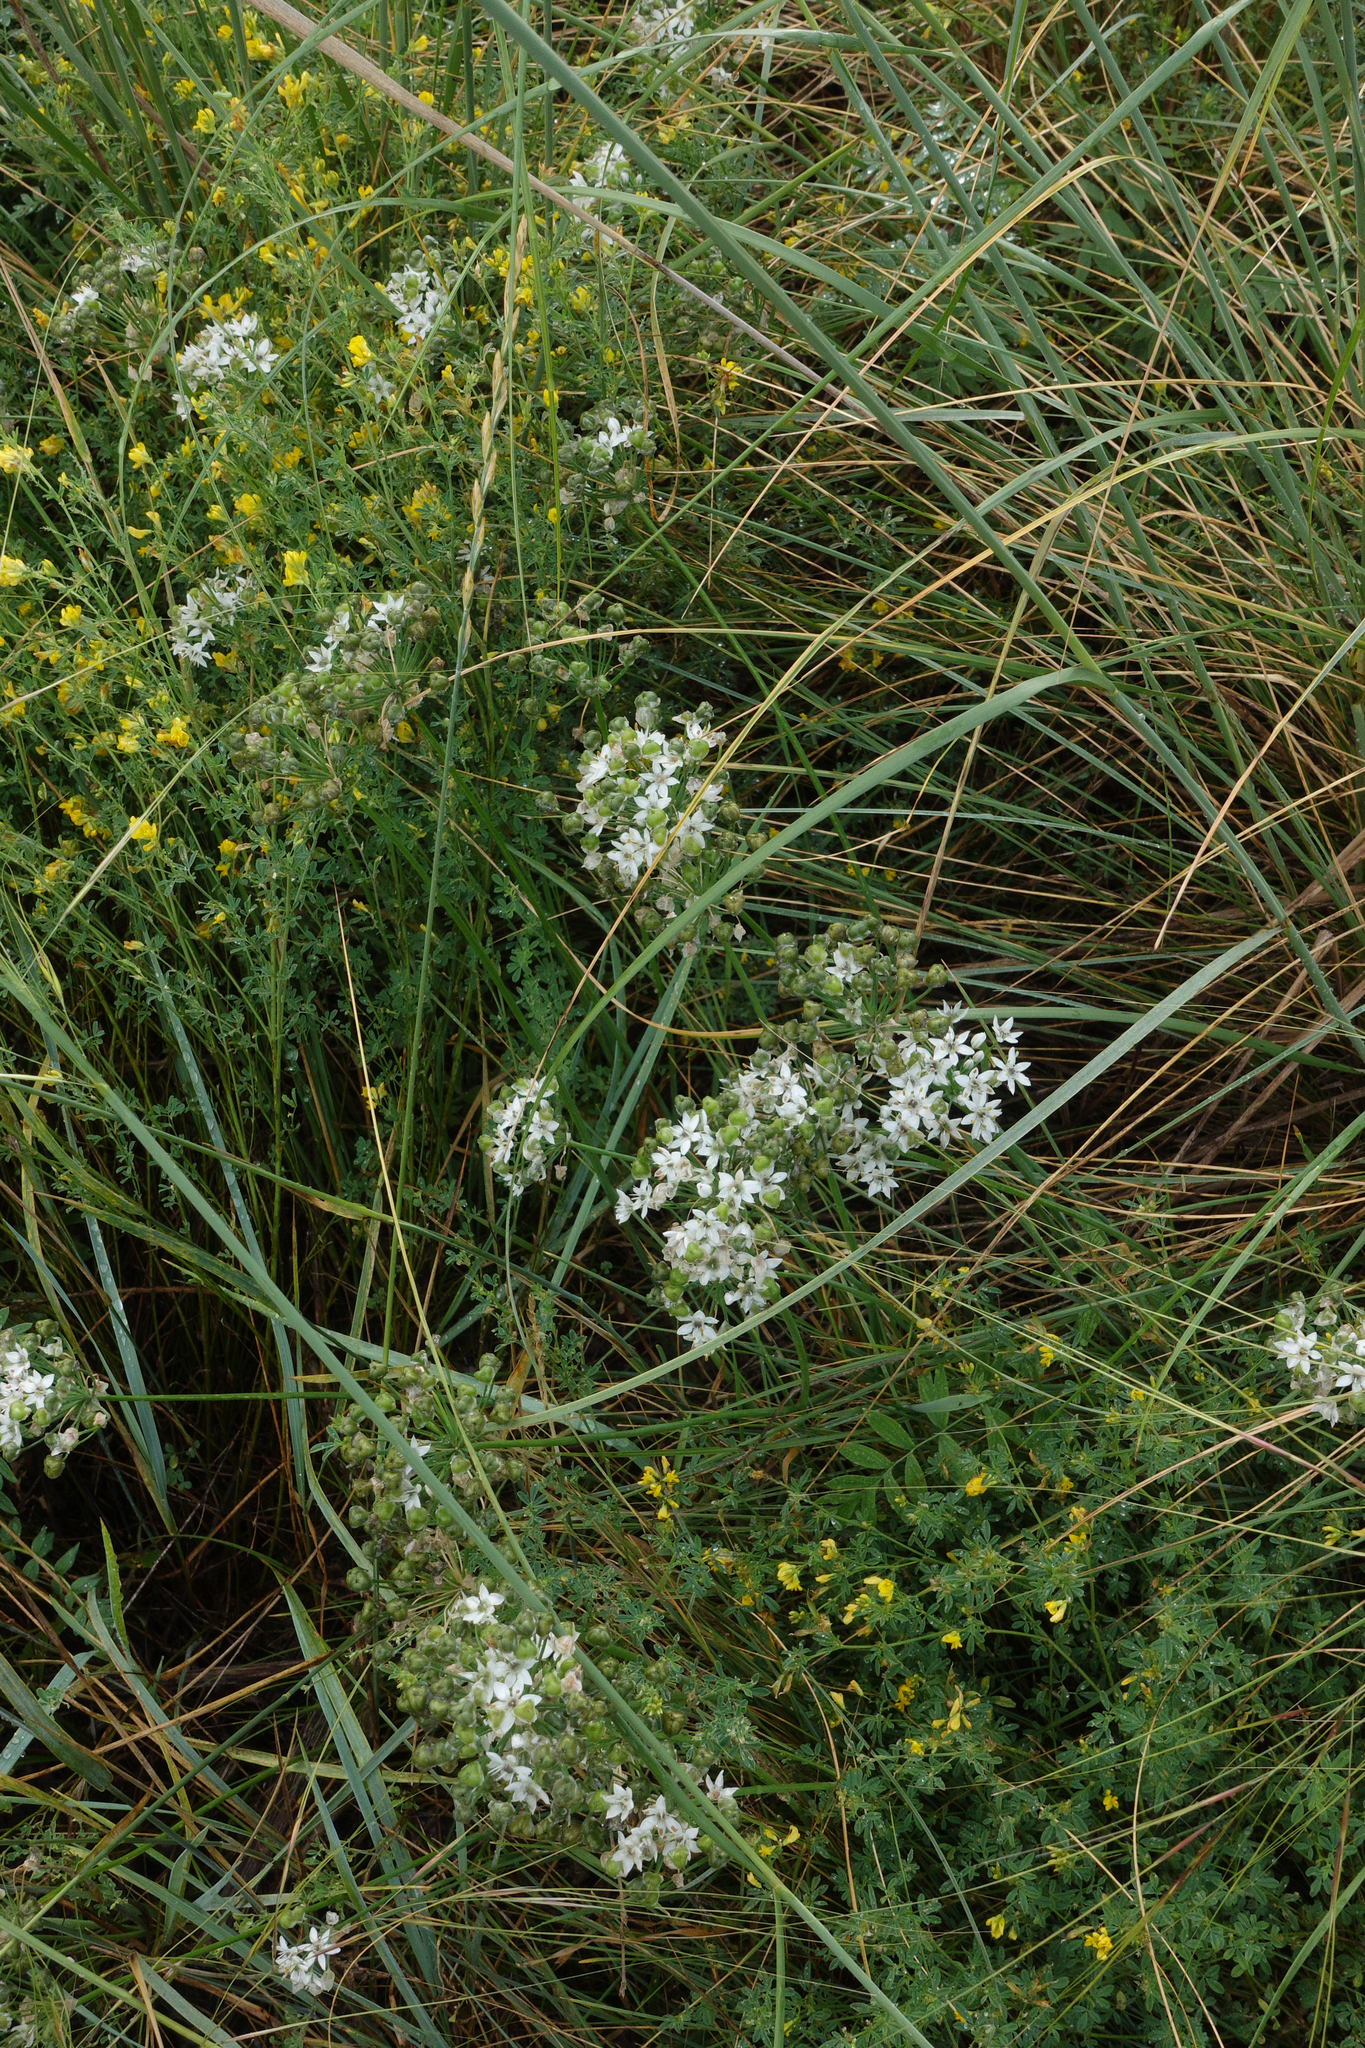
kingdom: Plantae
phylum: Tracheophyta
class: Liliopsida
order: Asparagales
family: Amaryllidaceae
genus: Allium
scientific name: Allium ramosum
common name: Fragrant garlic
